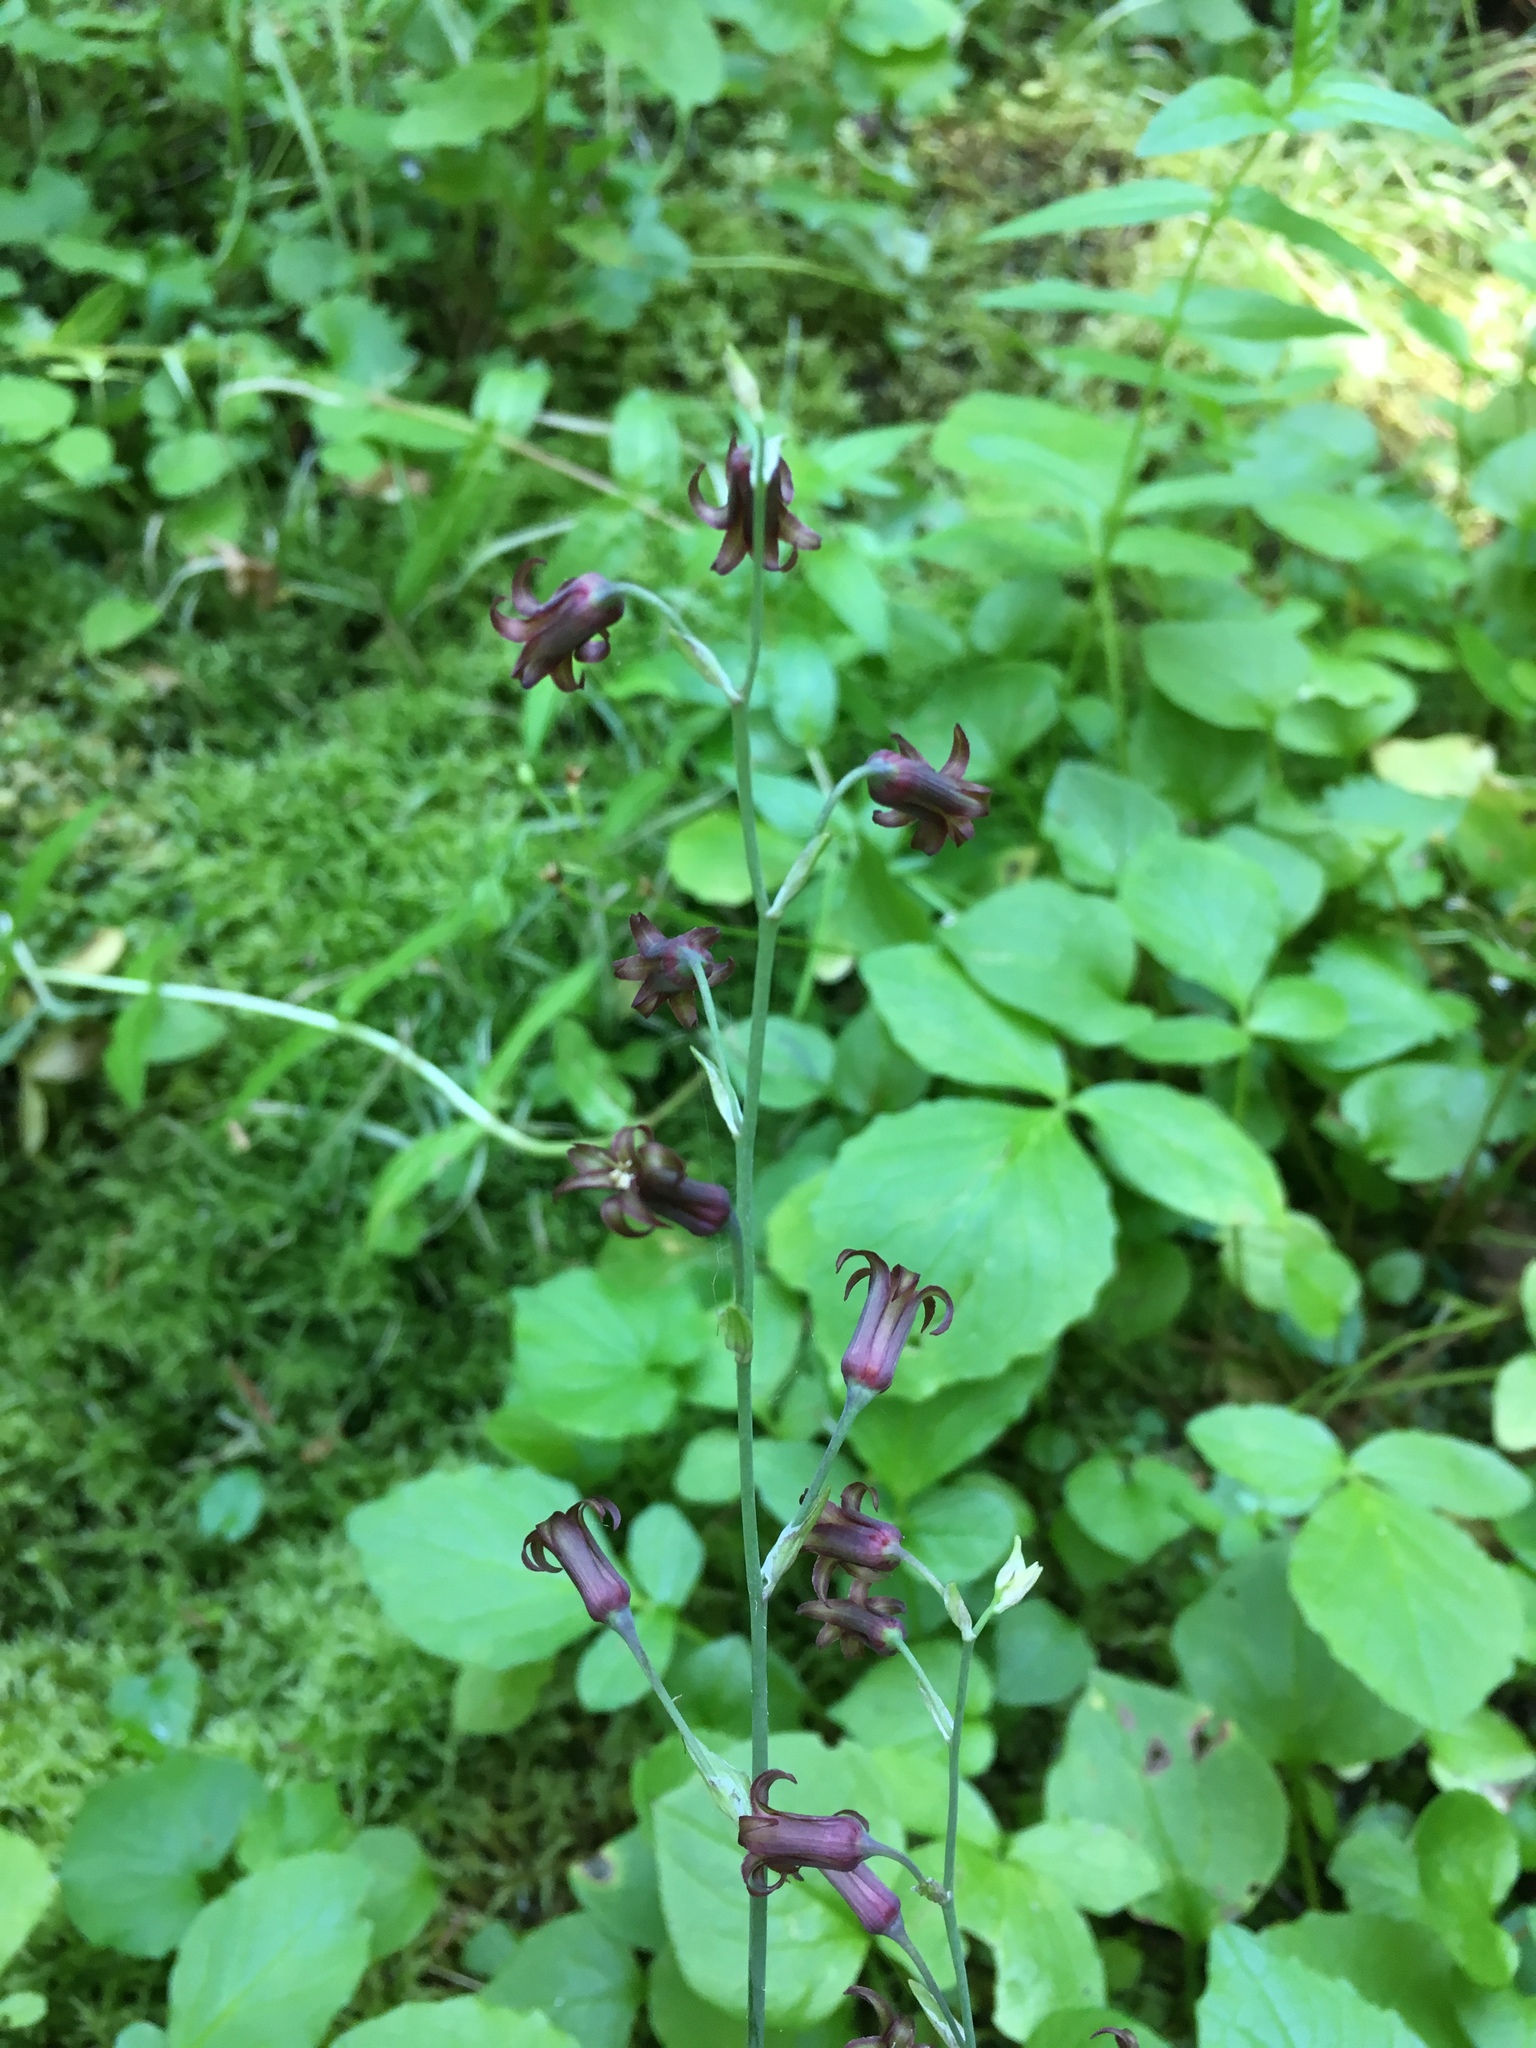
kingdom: Plantae
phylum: Tracheophyta
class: Liliopsida
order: Liliales
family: Melanthiaceae
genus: Anticlea
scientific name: Anticlea occidentalis
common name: Bronze-bells
